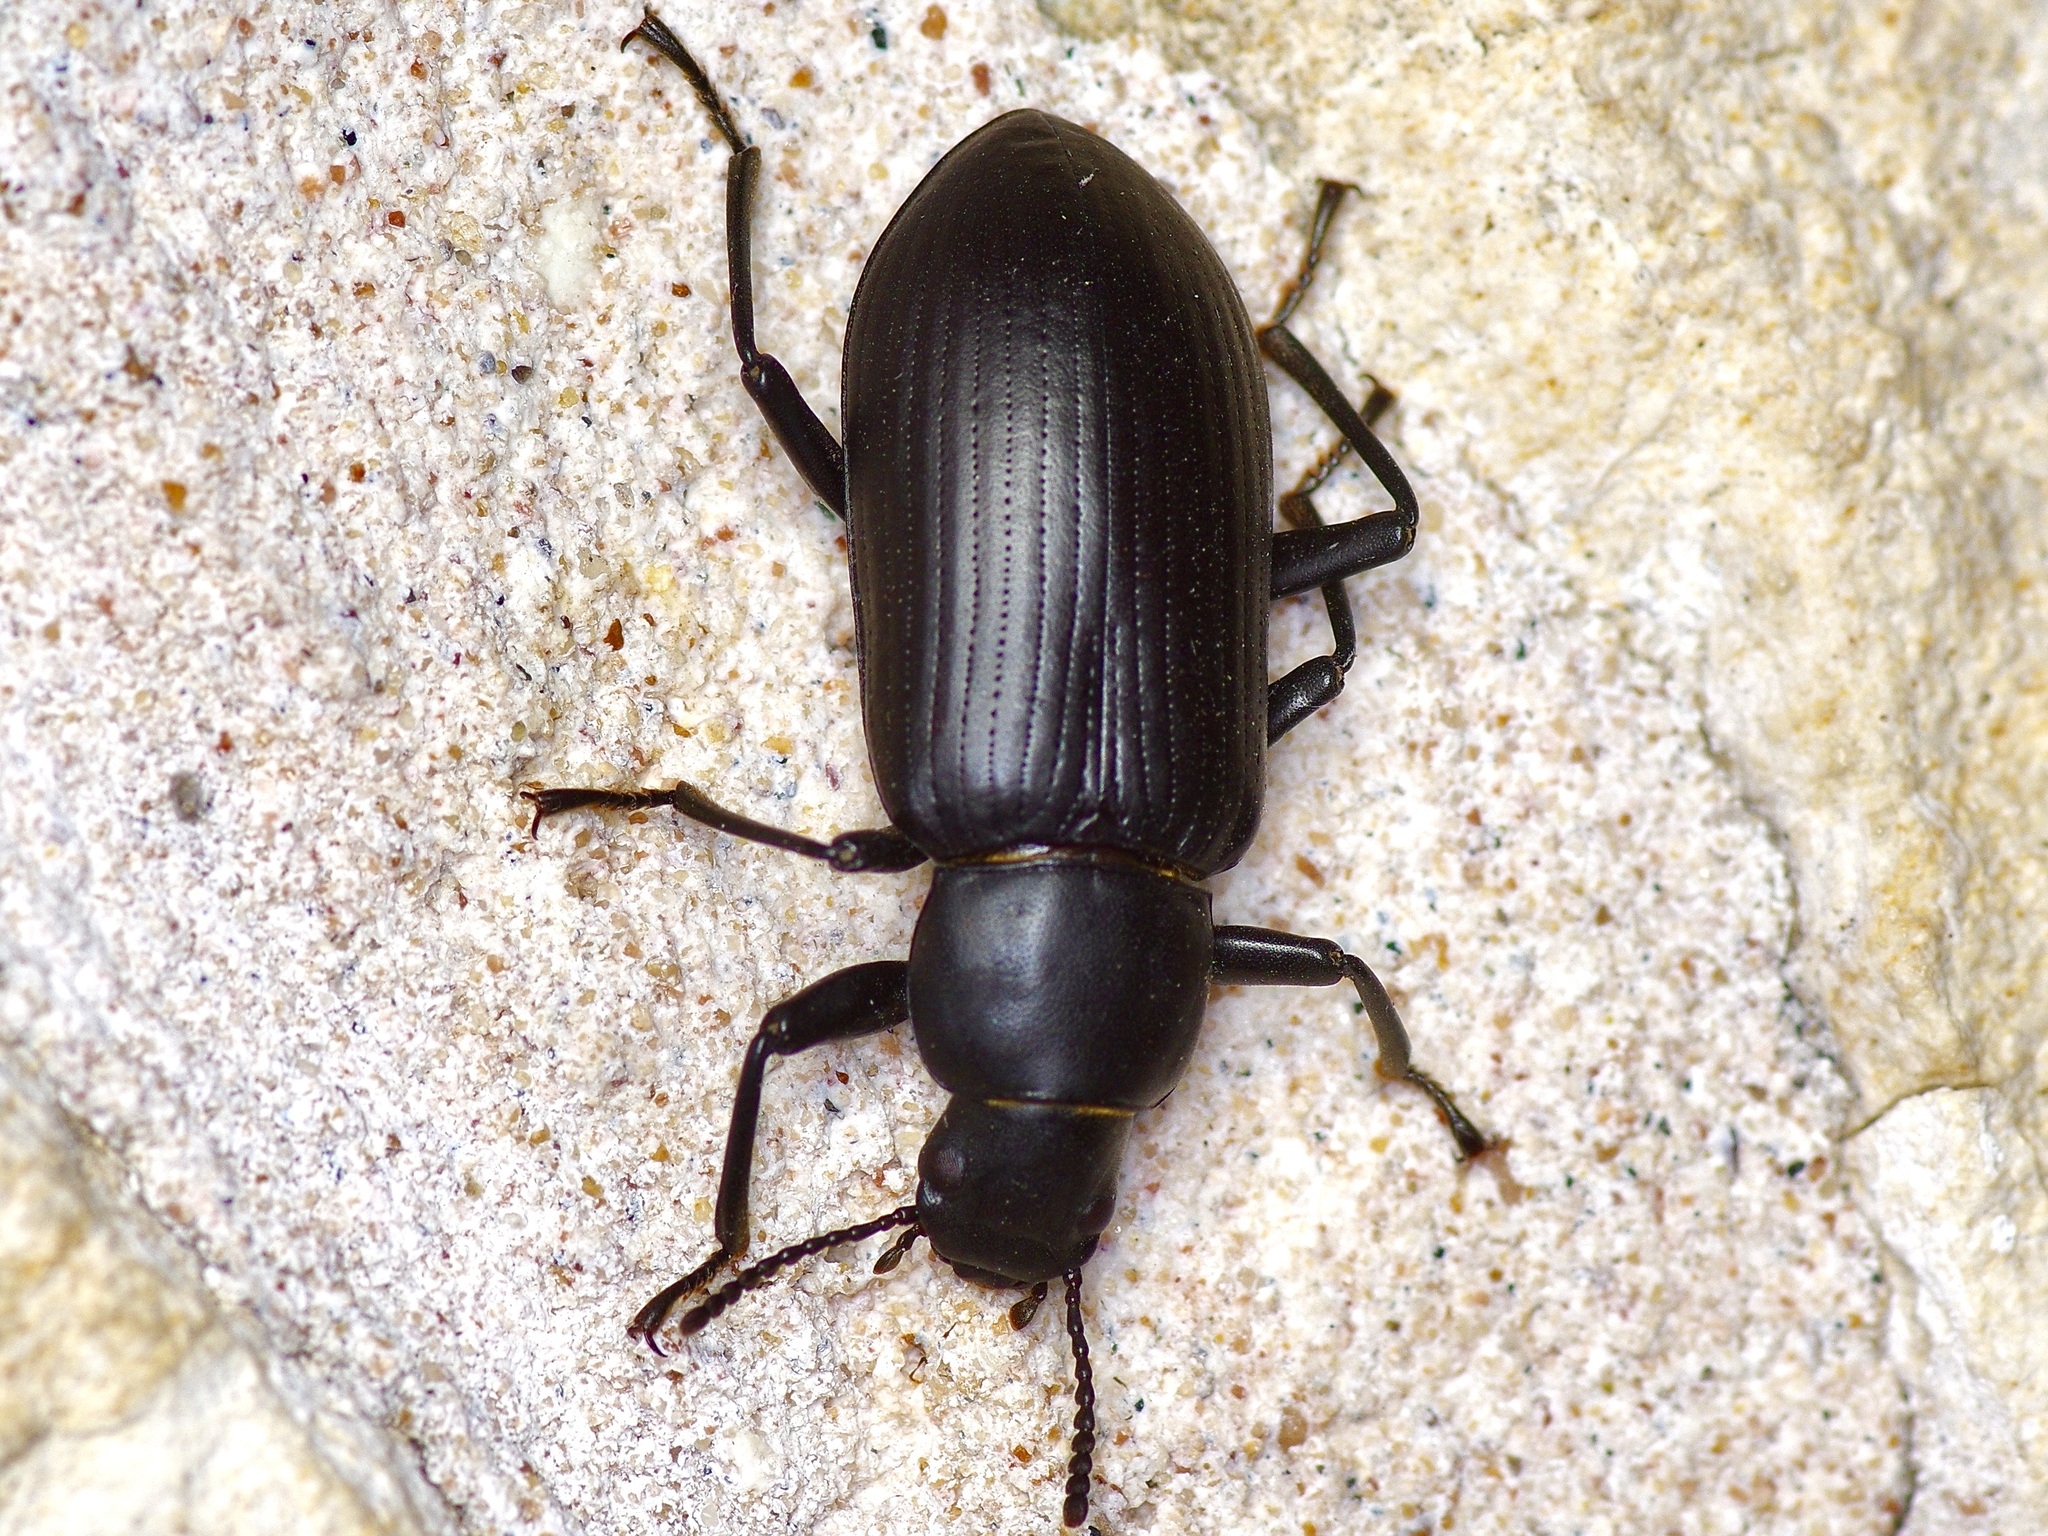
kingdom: Animalia
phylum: Arthropoda
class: Insecta
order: Coleoptera
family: Tenebrionidae
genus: Alobates
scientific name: Alobates
